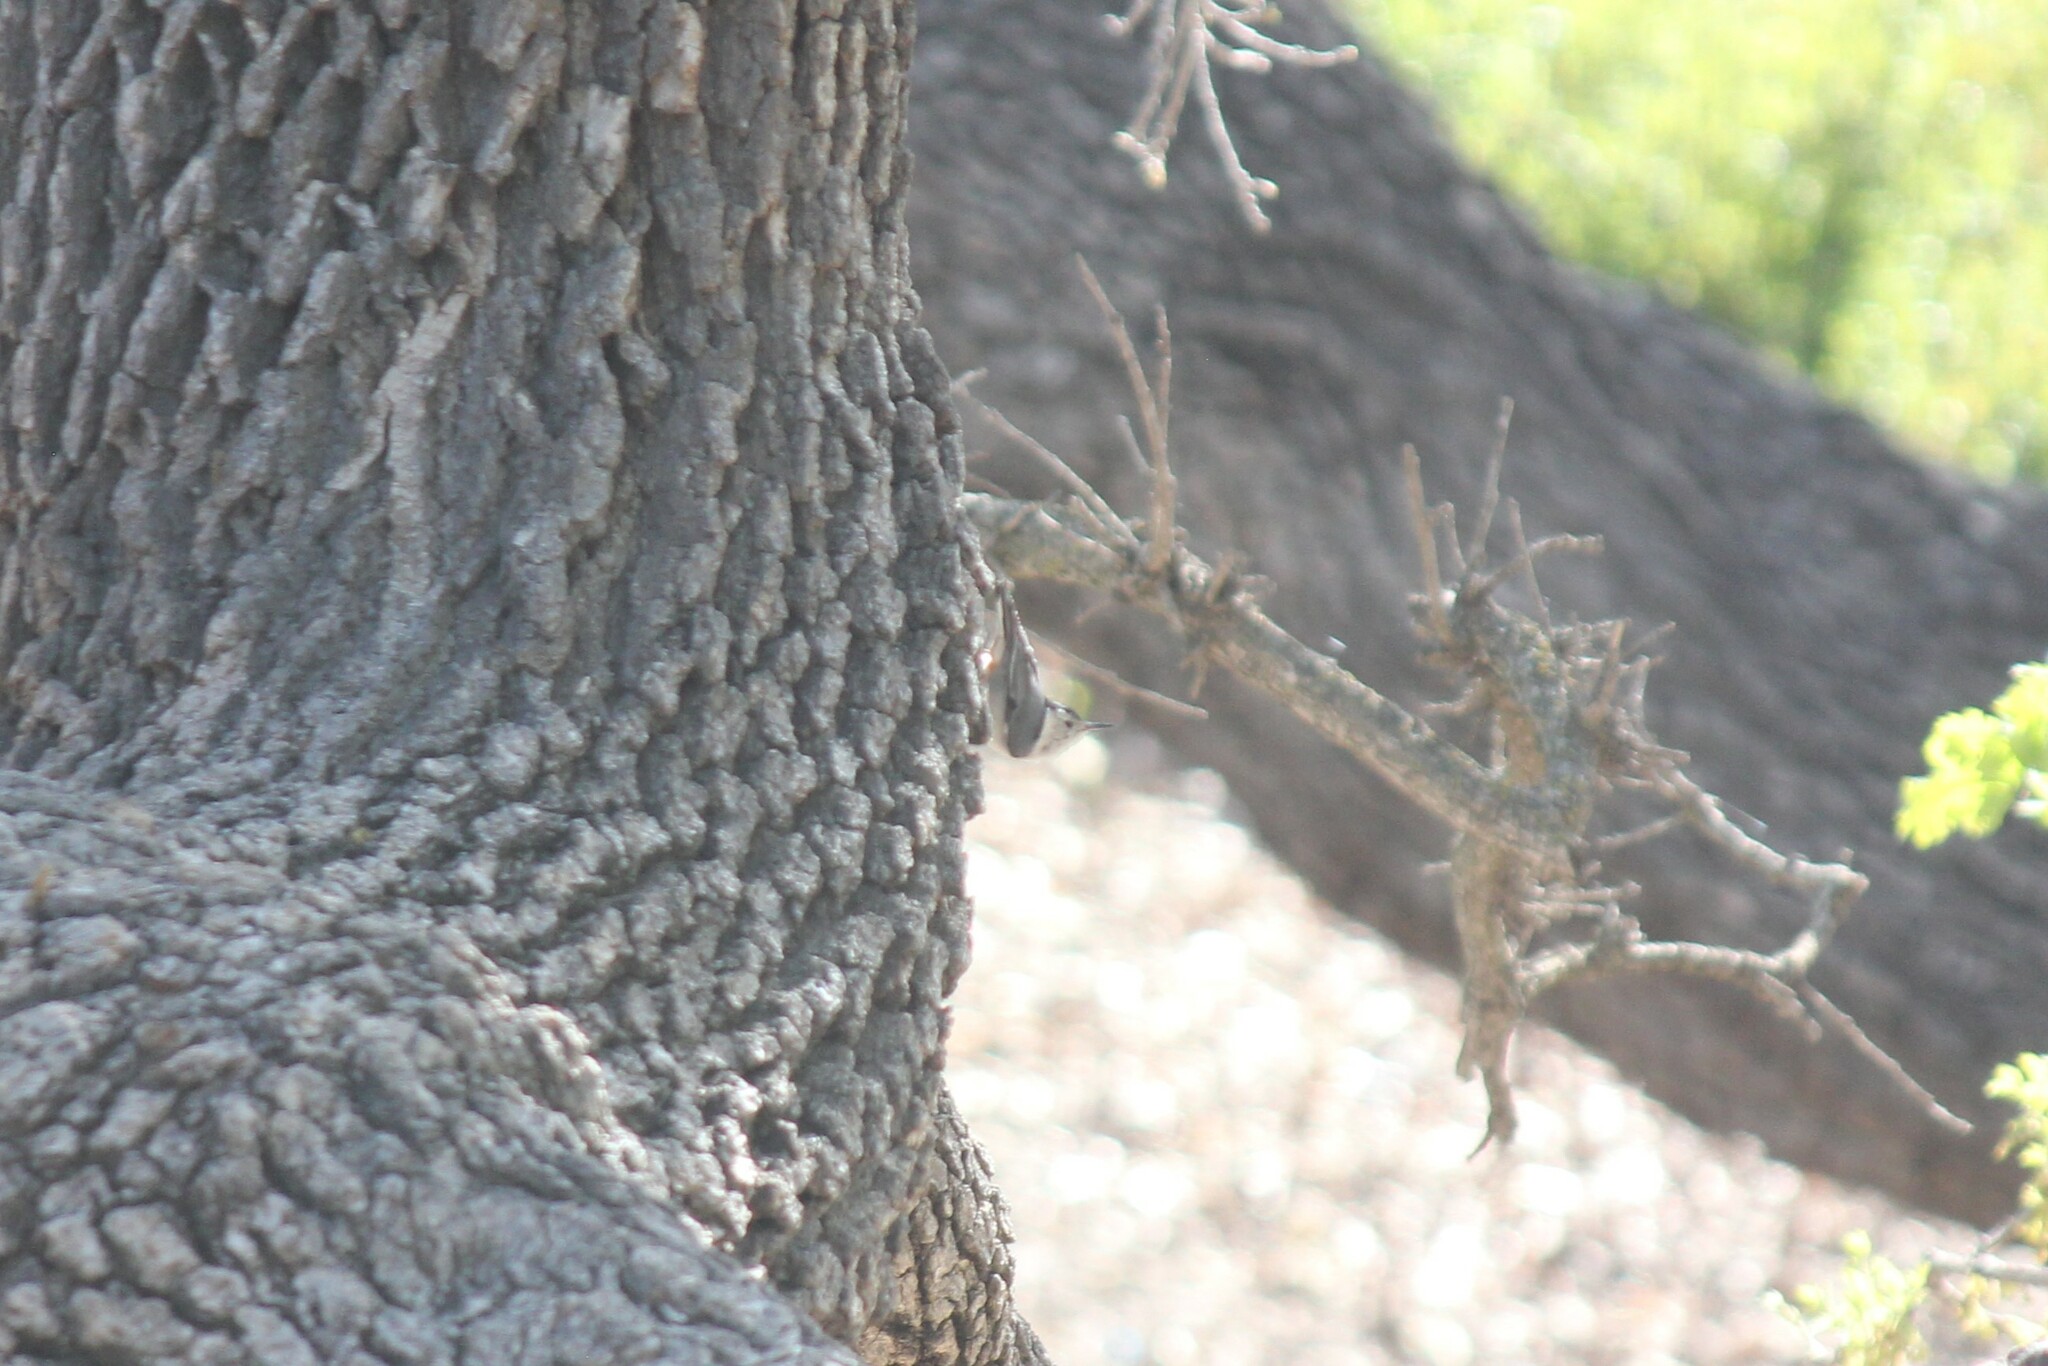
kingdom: Animalia
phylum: Chordata
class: Aves
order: Passeriformes
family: Sittidae
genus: Sitta
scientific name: Sitta carolinensis
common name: White-breasted nuthatch
